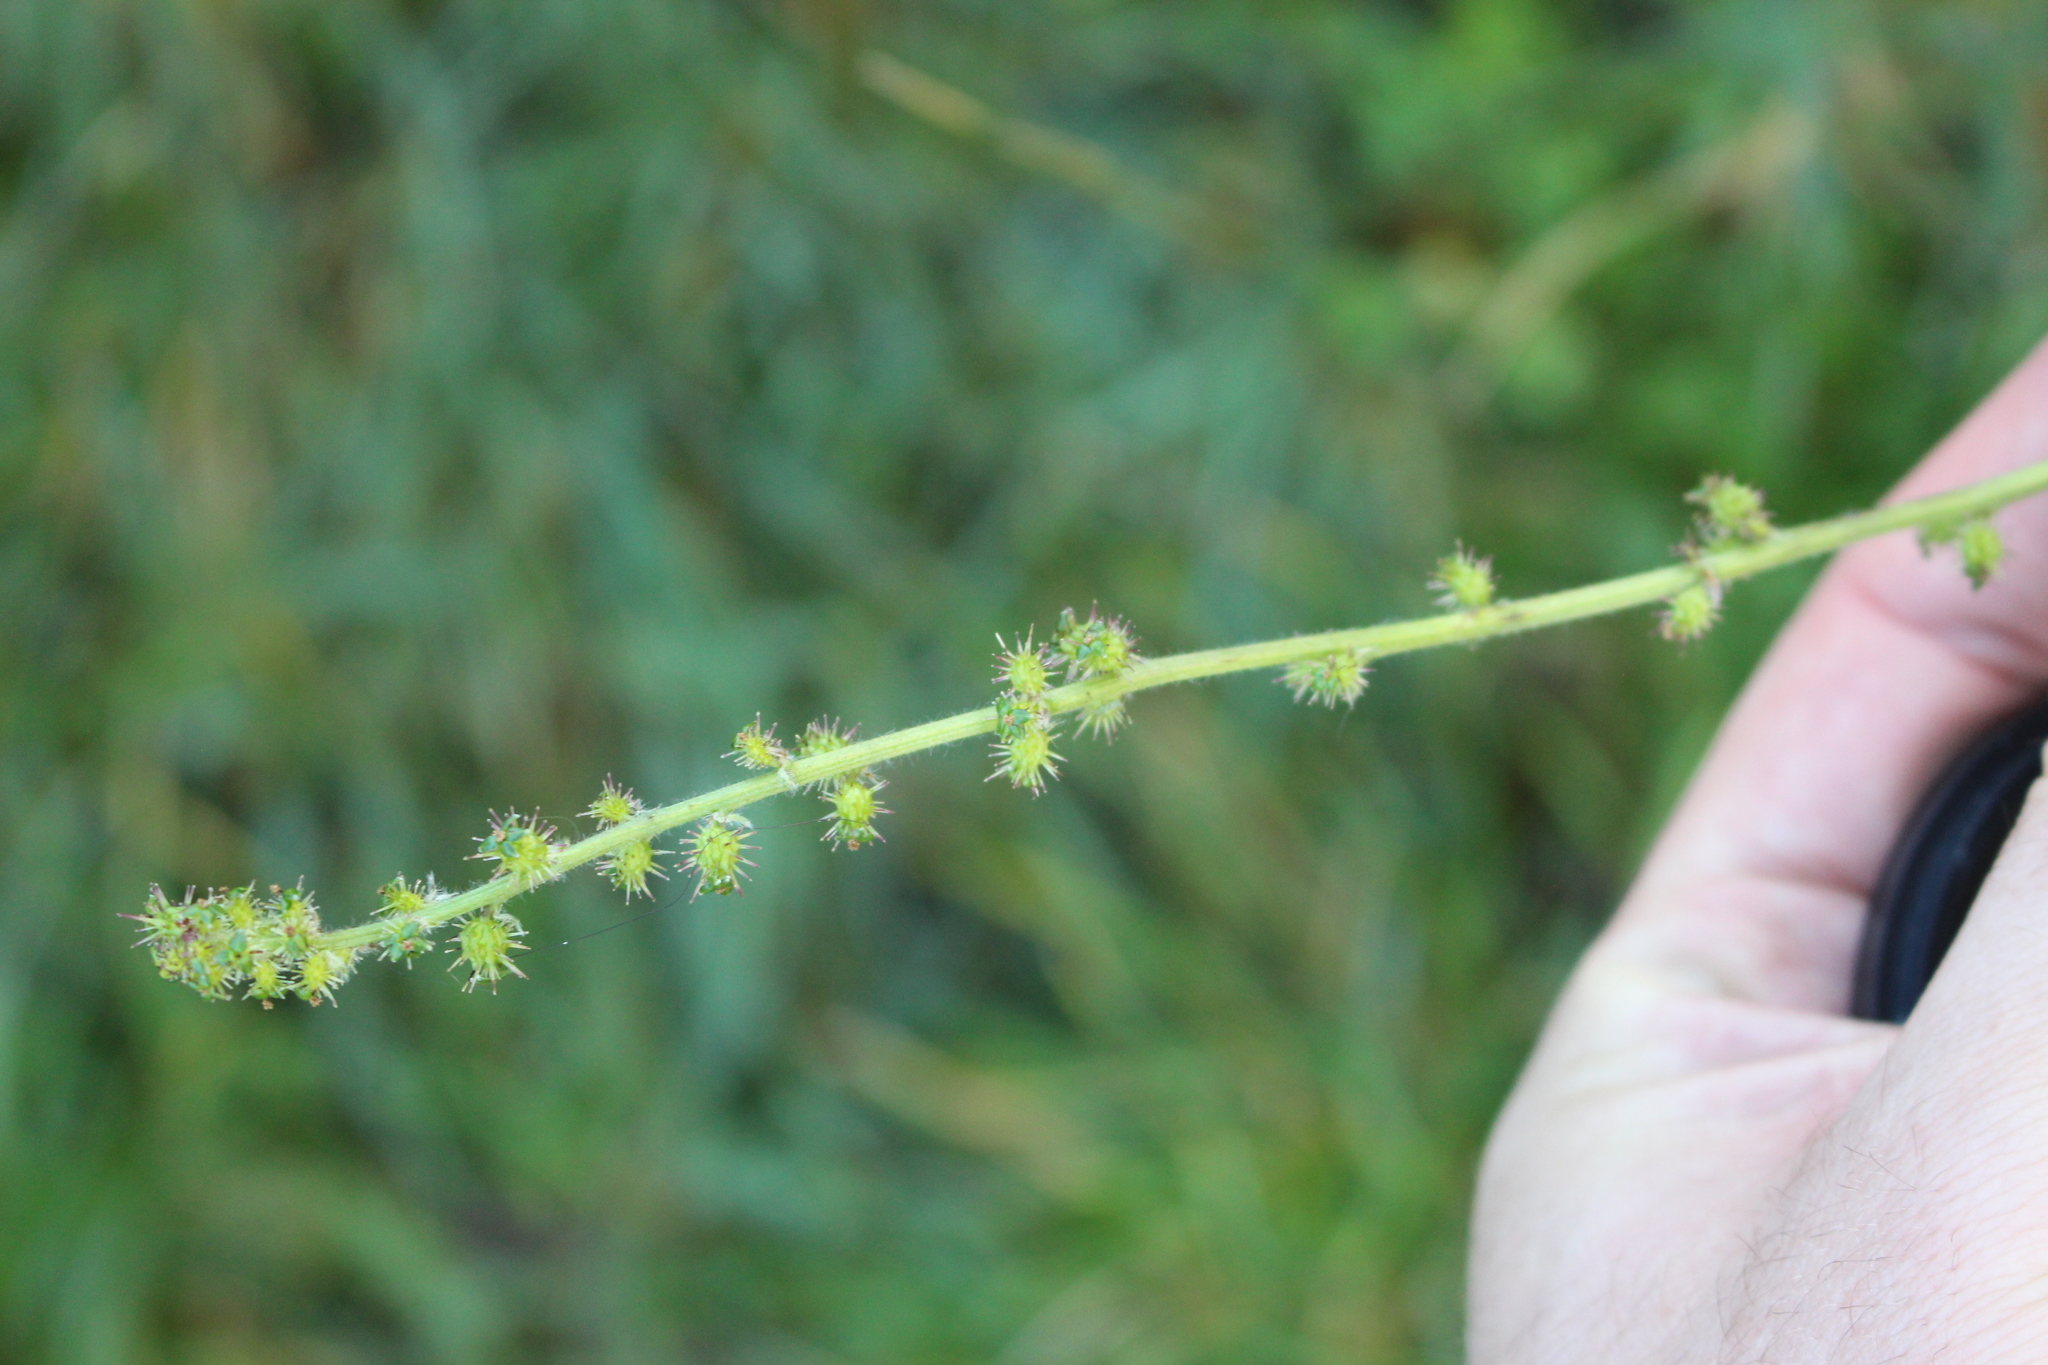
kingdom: Plantae
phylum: Tracheophyta
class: Magnoliopsida
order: Rosales
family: Rosaceae
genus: Acaena
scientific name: Acaena agnipila
